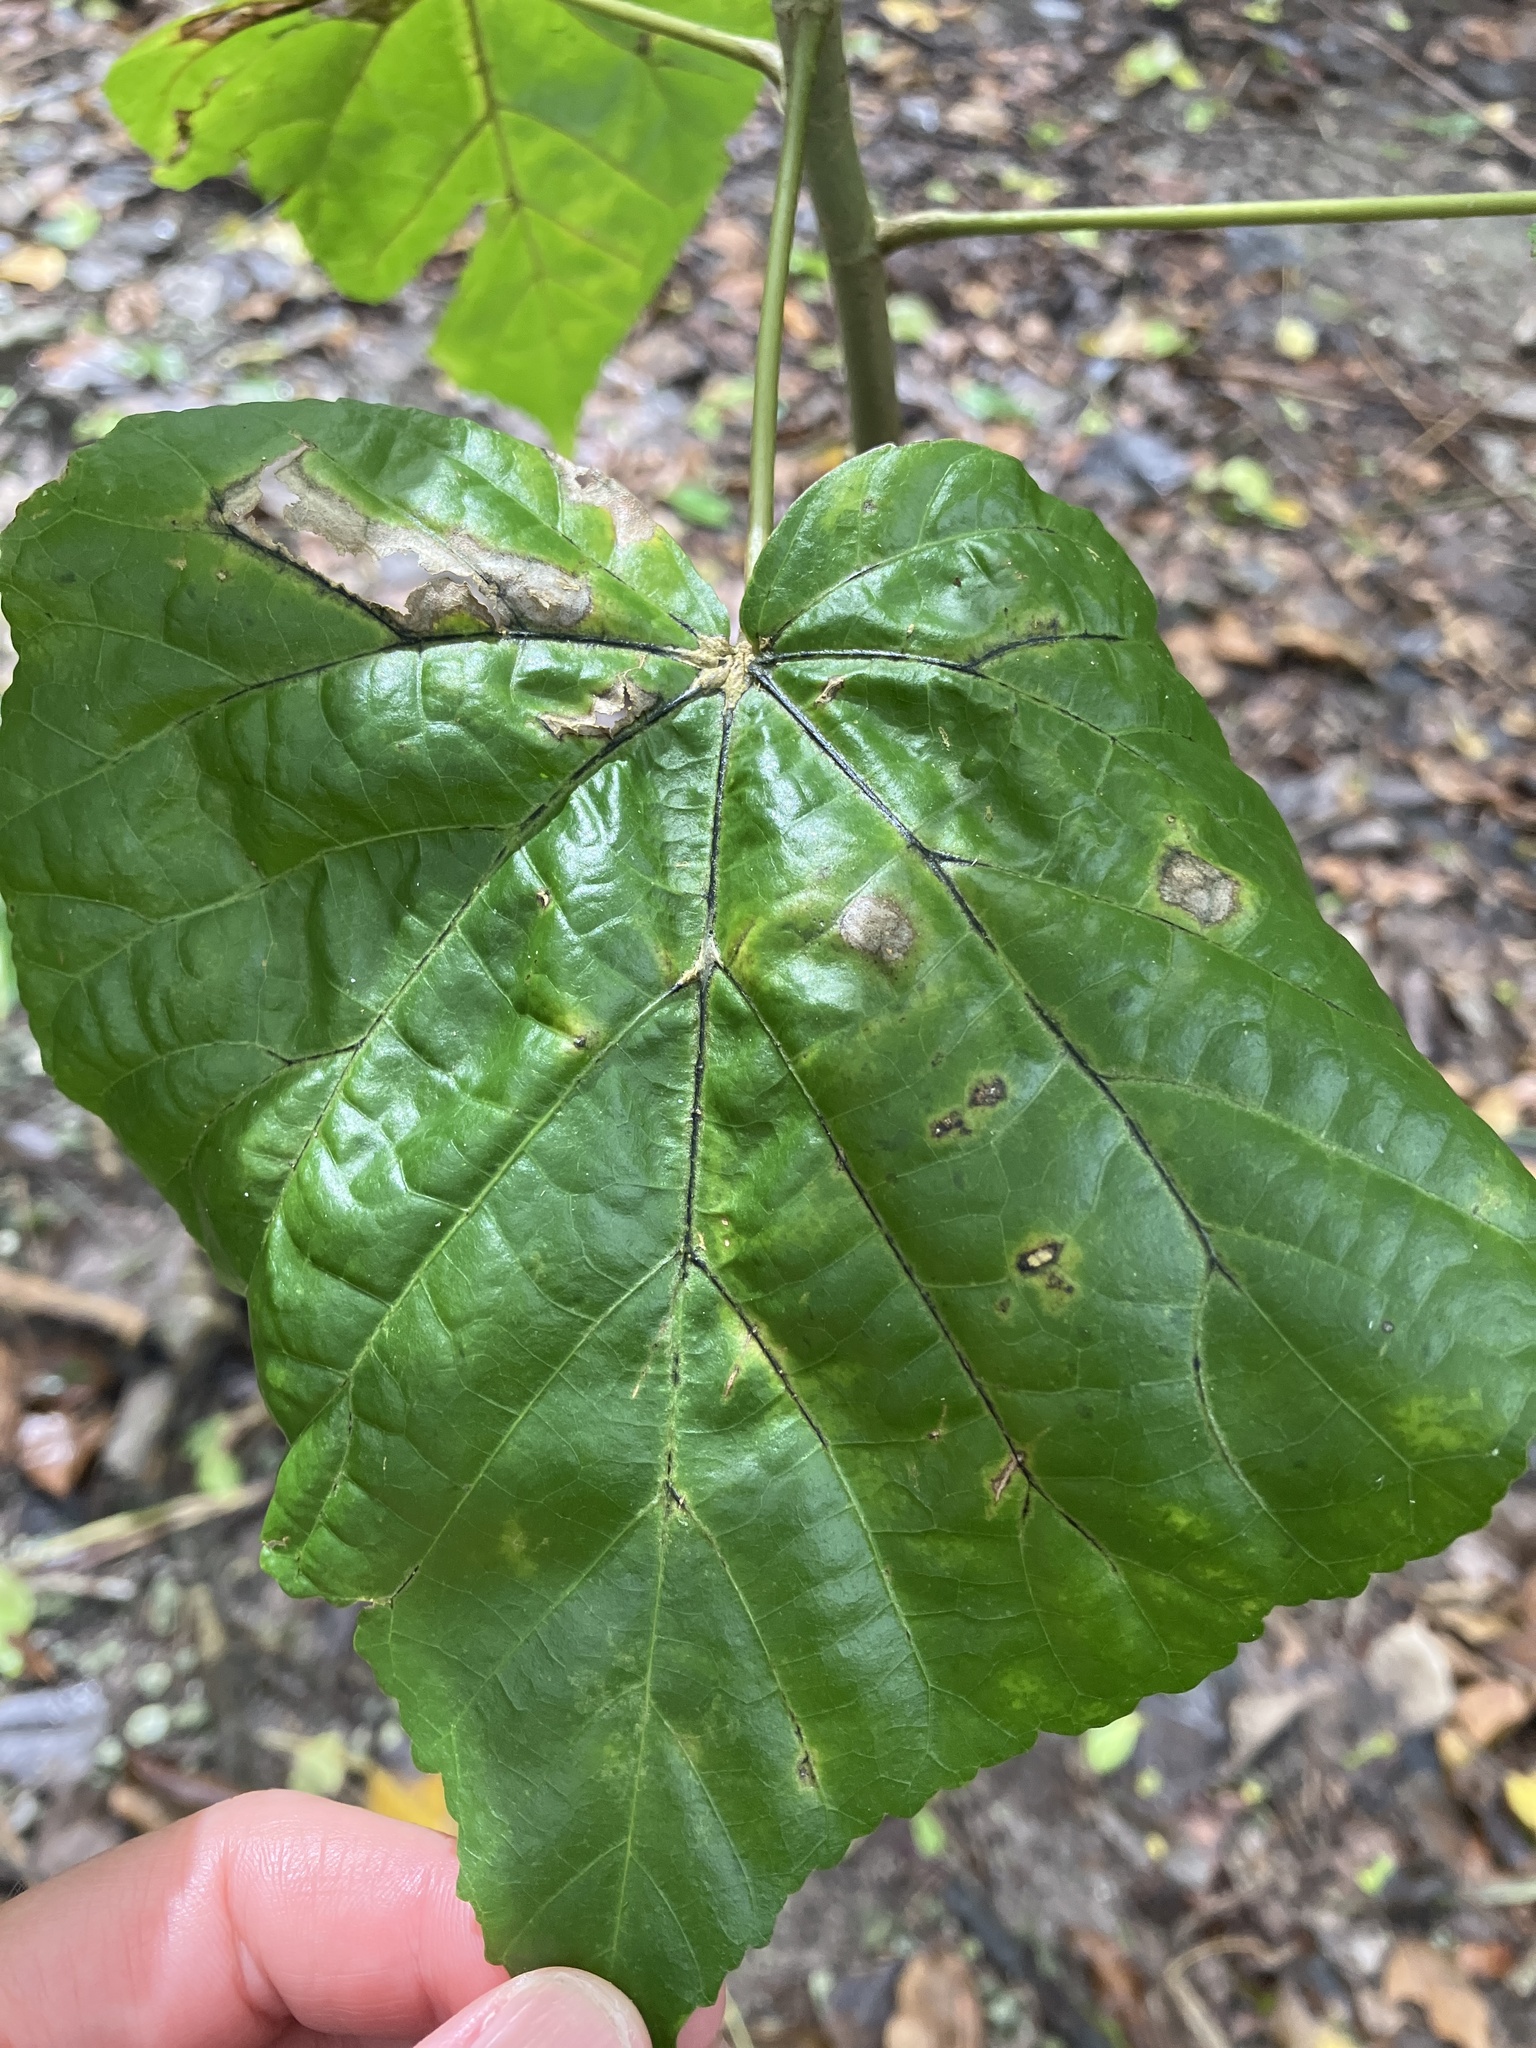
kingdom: Plantae
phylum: Tracheophyta
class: Magnoliopsida
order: Malvales
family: Malvaceae
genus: Talipariti
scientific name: Talipariti tiliaceum
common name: Sea hibiscus
